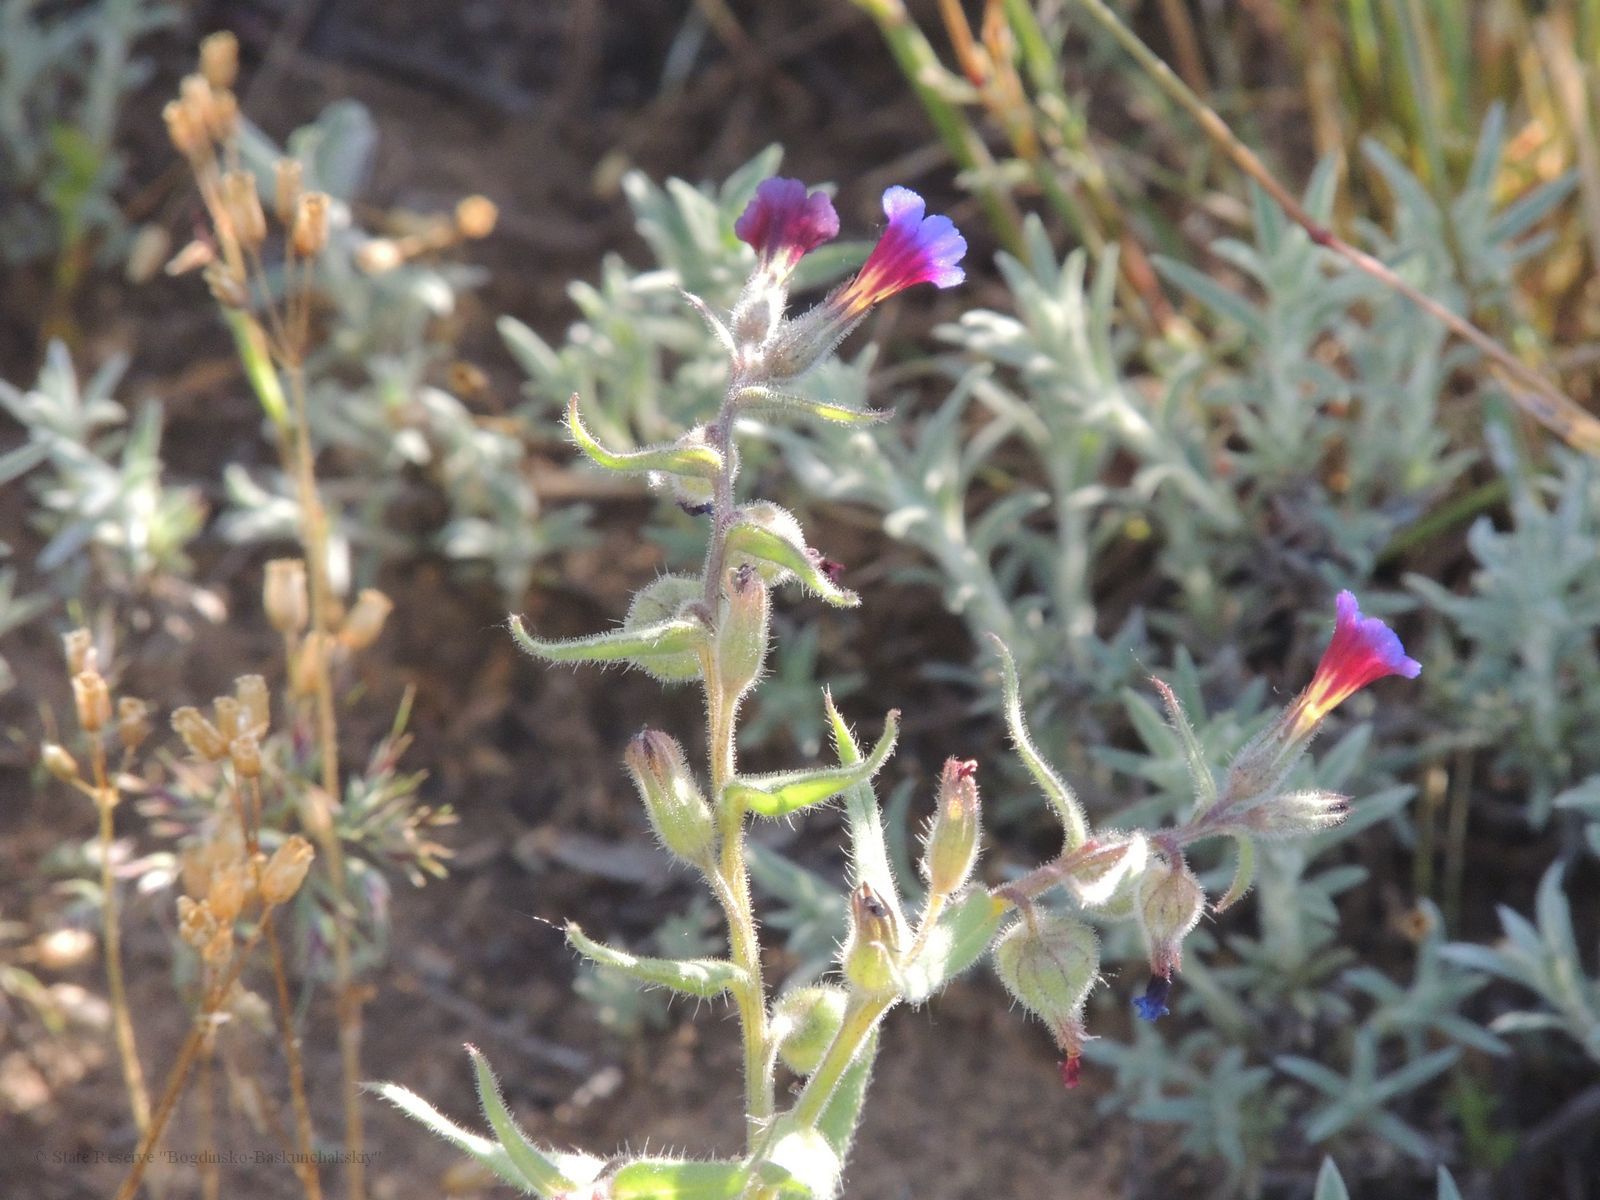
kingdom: Plantae
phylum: Tracheophyta
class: Magnoliopsida
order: Boraginales
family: Boraginaceae
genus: Nonea
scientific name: Nonea caspica
